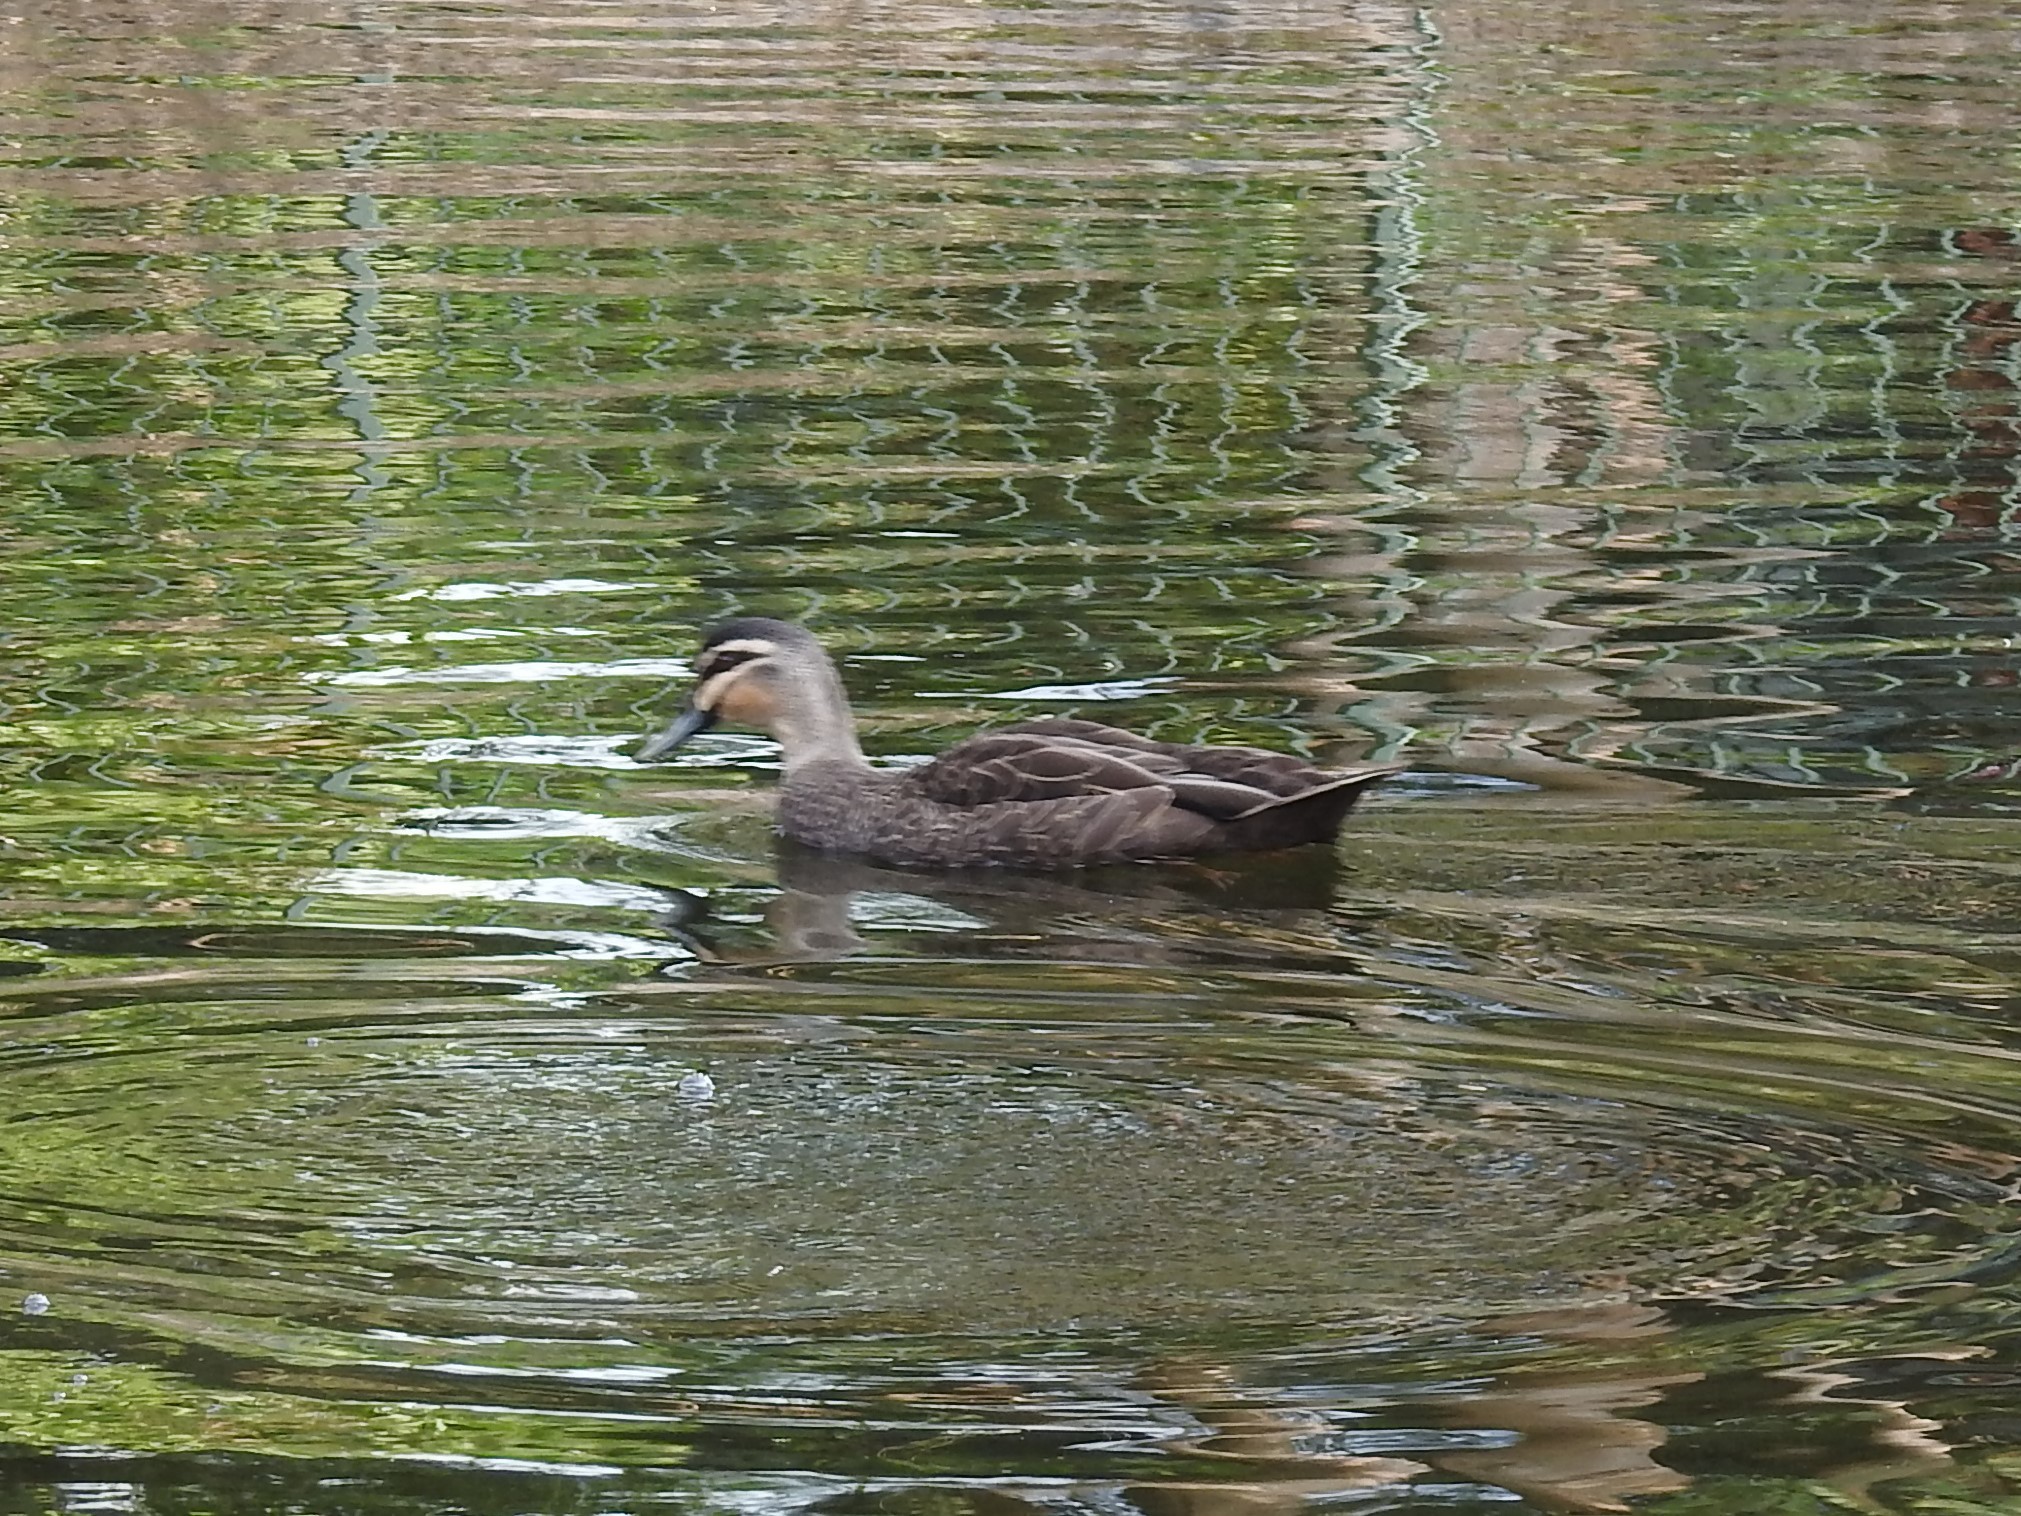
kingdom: Animalia
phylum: Chordata
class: Aves
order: Anseriformes
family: Anatidae
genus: Anas
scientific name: Anas superciliosa
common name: Pacific black duck
